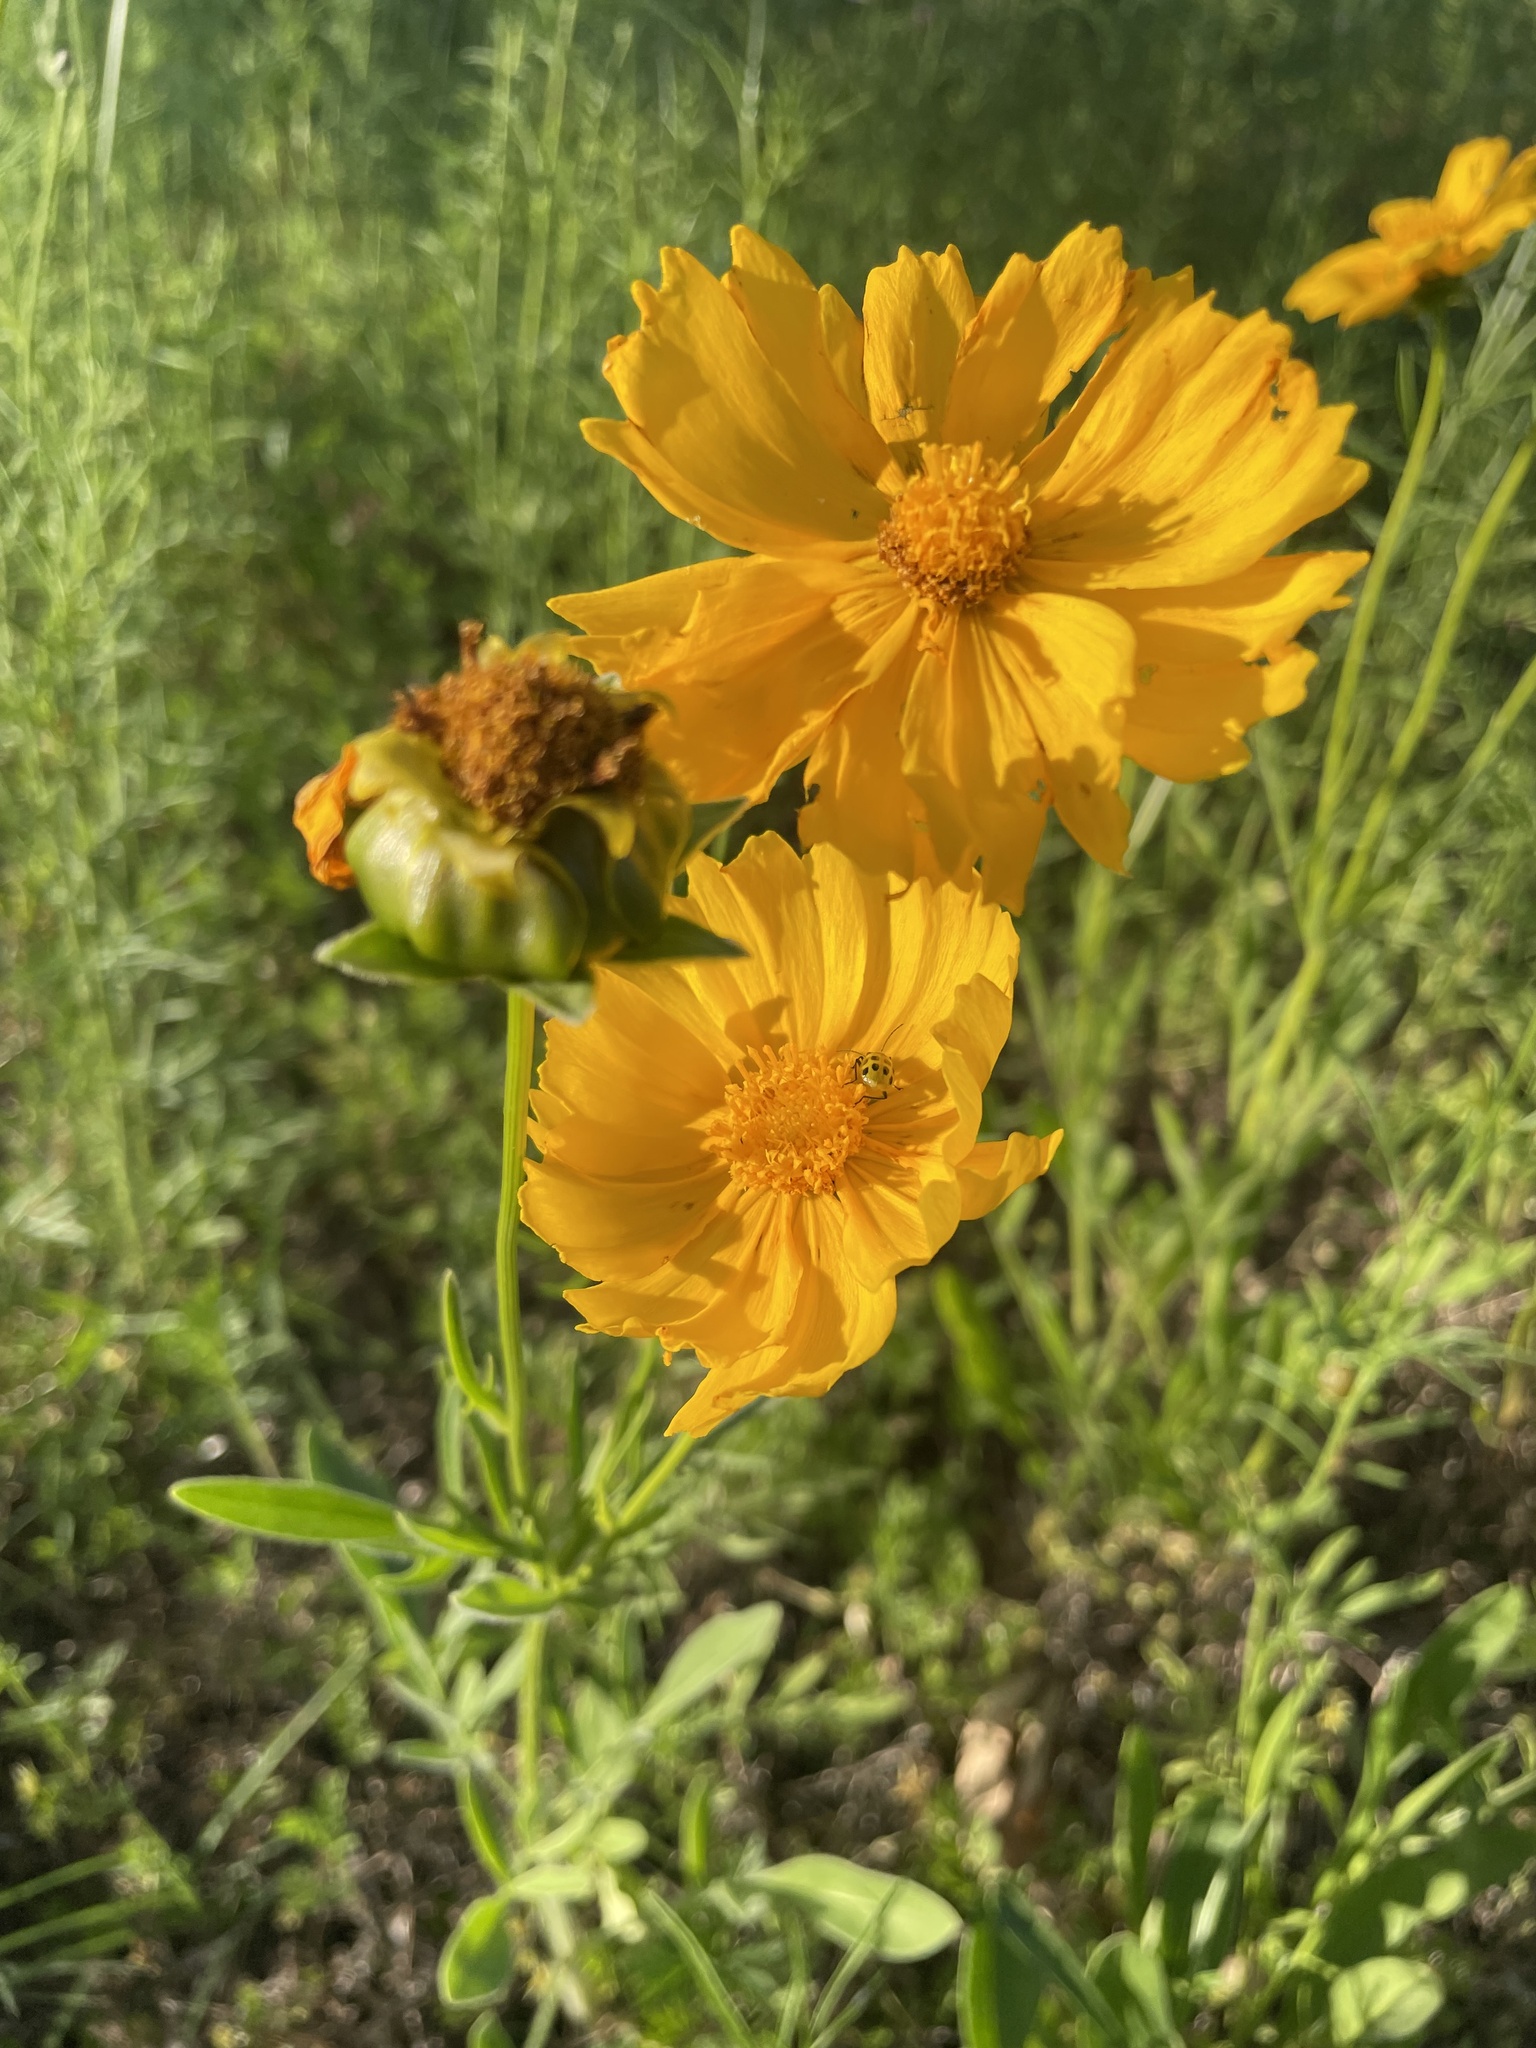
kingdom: Plantae
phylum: Tracheophyta
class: Magnoliopsida
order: Asterales
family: Asteraceae
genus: Coreopsis
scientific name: Coreopsis lanceolata
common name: Garden coreopsis
